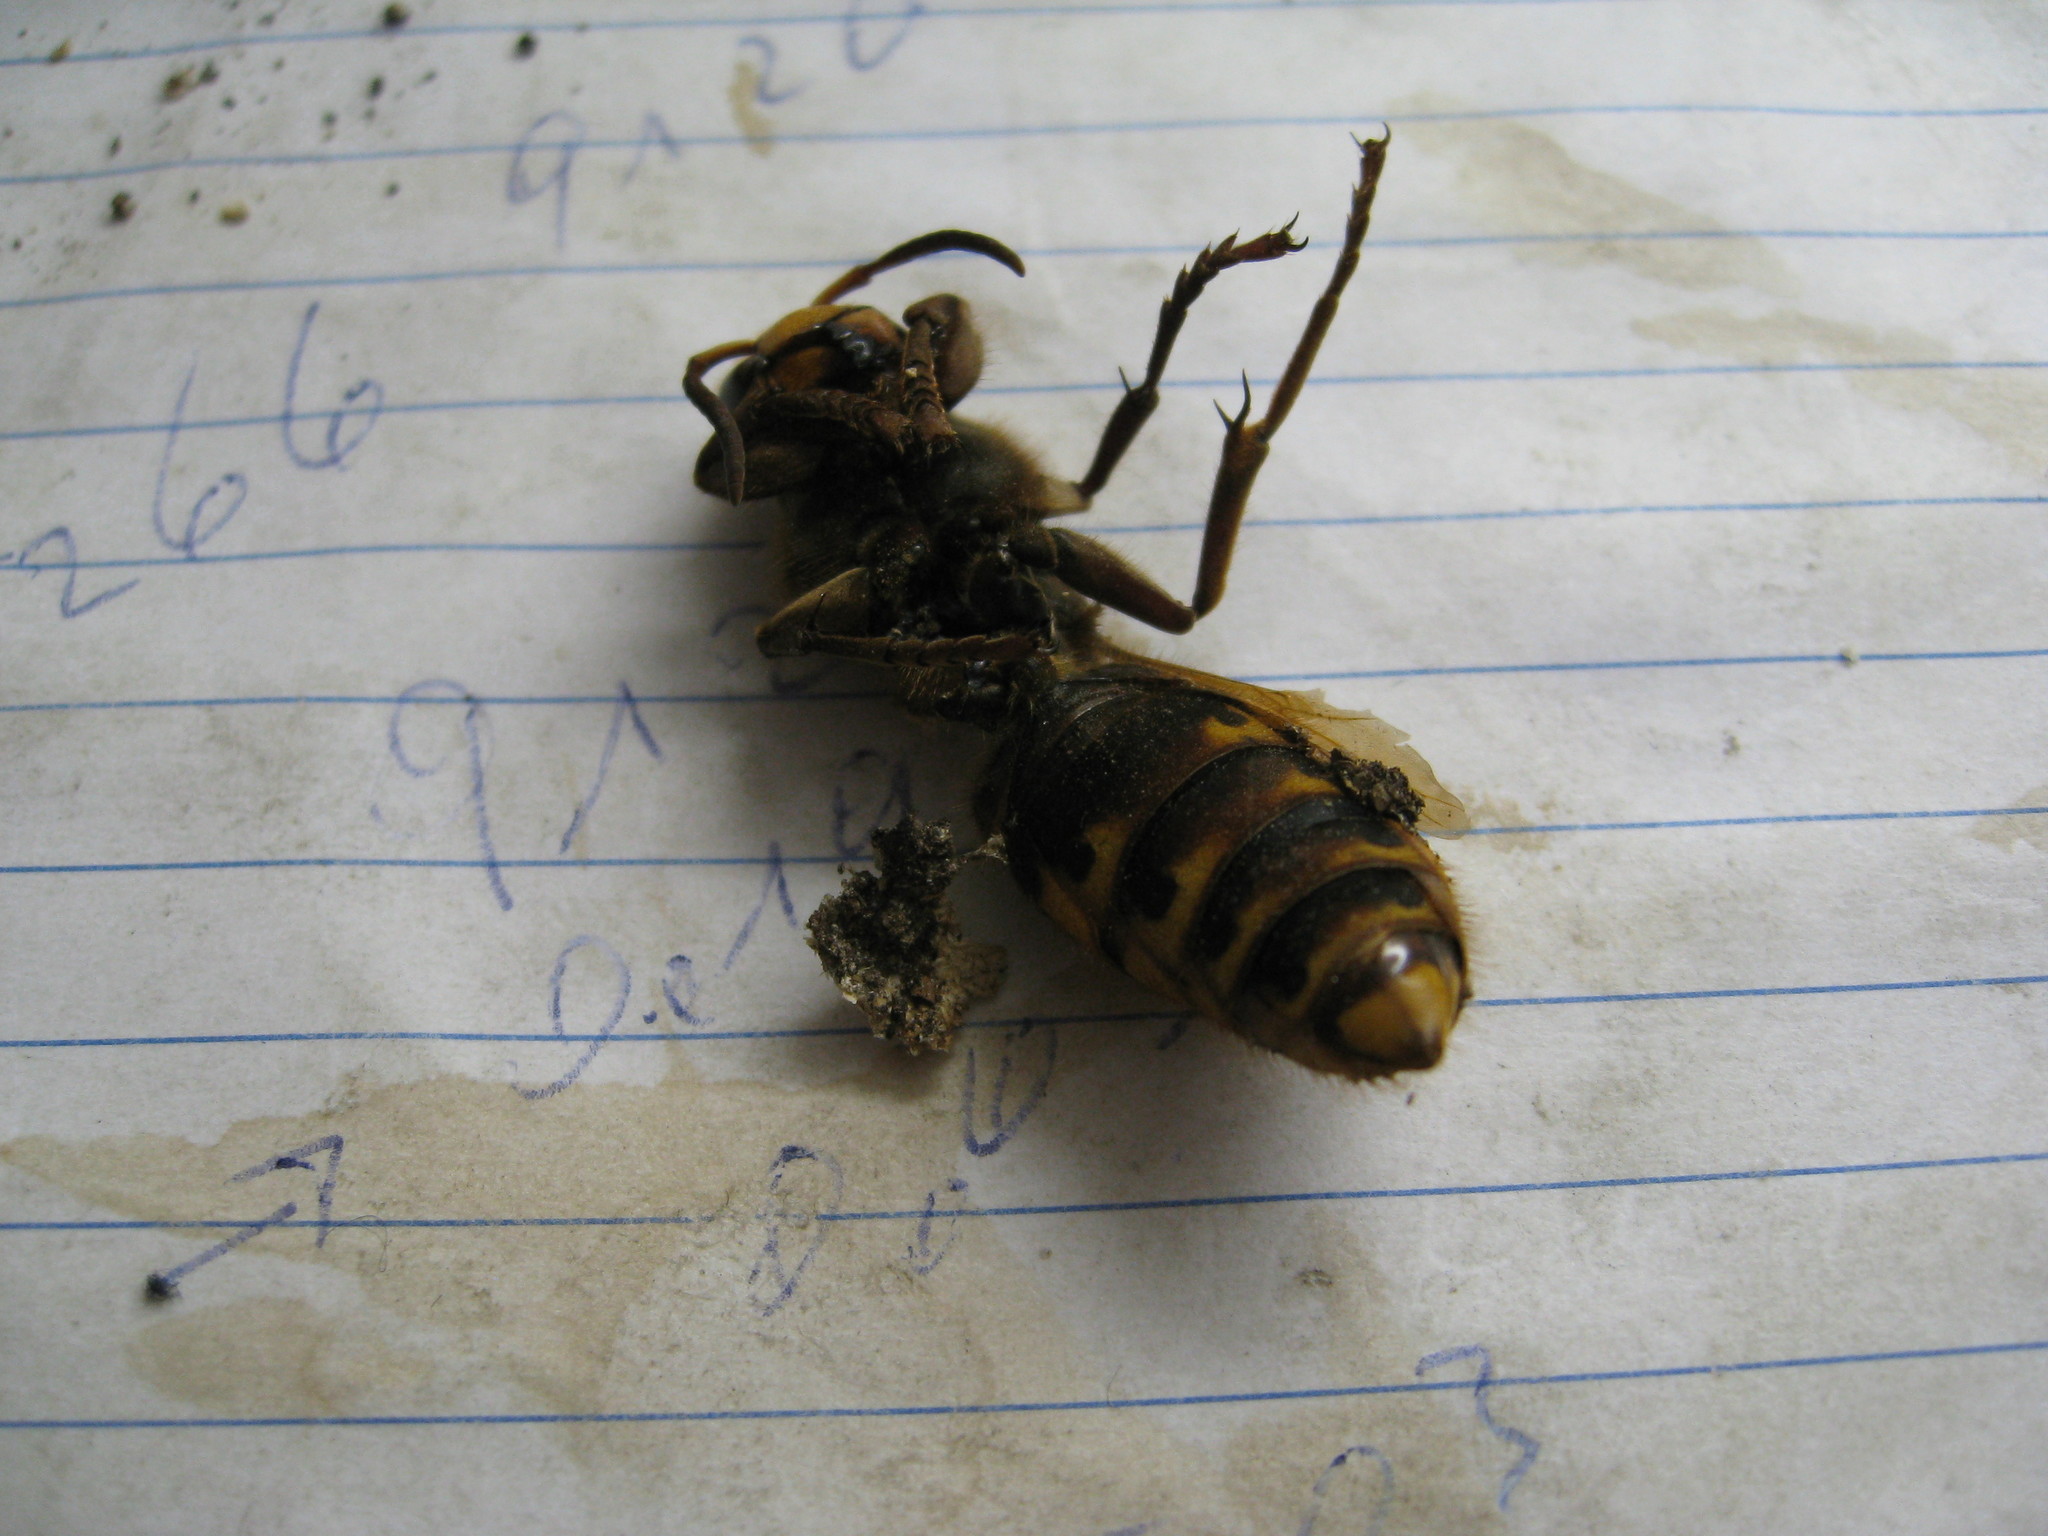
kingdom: Animalia
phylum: Arthropoda
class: Insecta
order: Hymenoptera
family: Vespidae
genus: Vespa
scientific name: Vespa crabro
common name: Hornet
